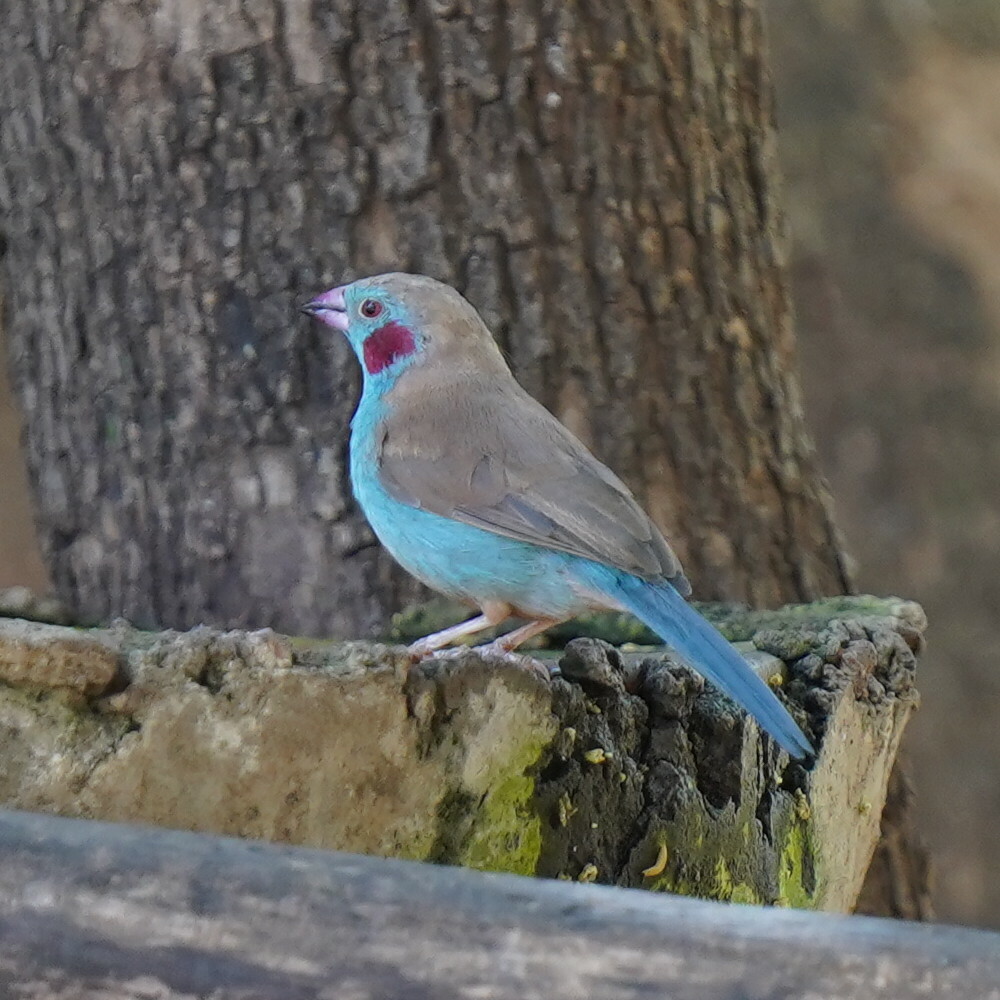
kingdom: Animalia
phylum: Chordata
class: Aves
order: Passeriformes
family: Estrildidae
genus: Uraeginthus
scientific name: Uraeginthus bengalus
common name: Red-cheeked cordon-bleu
